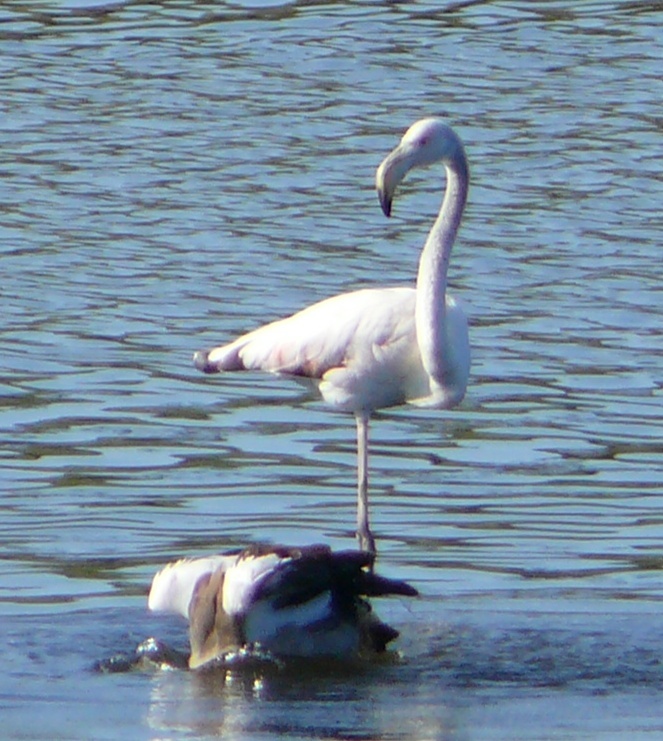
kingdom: Animalia
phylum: Chordata
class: Aves
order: Phoenicopteriformes
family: Phoenicopteridae
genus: Phoenicopterus
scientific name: Phoenicopterus roseus
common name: Greater flamingo
